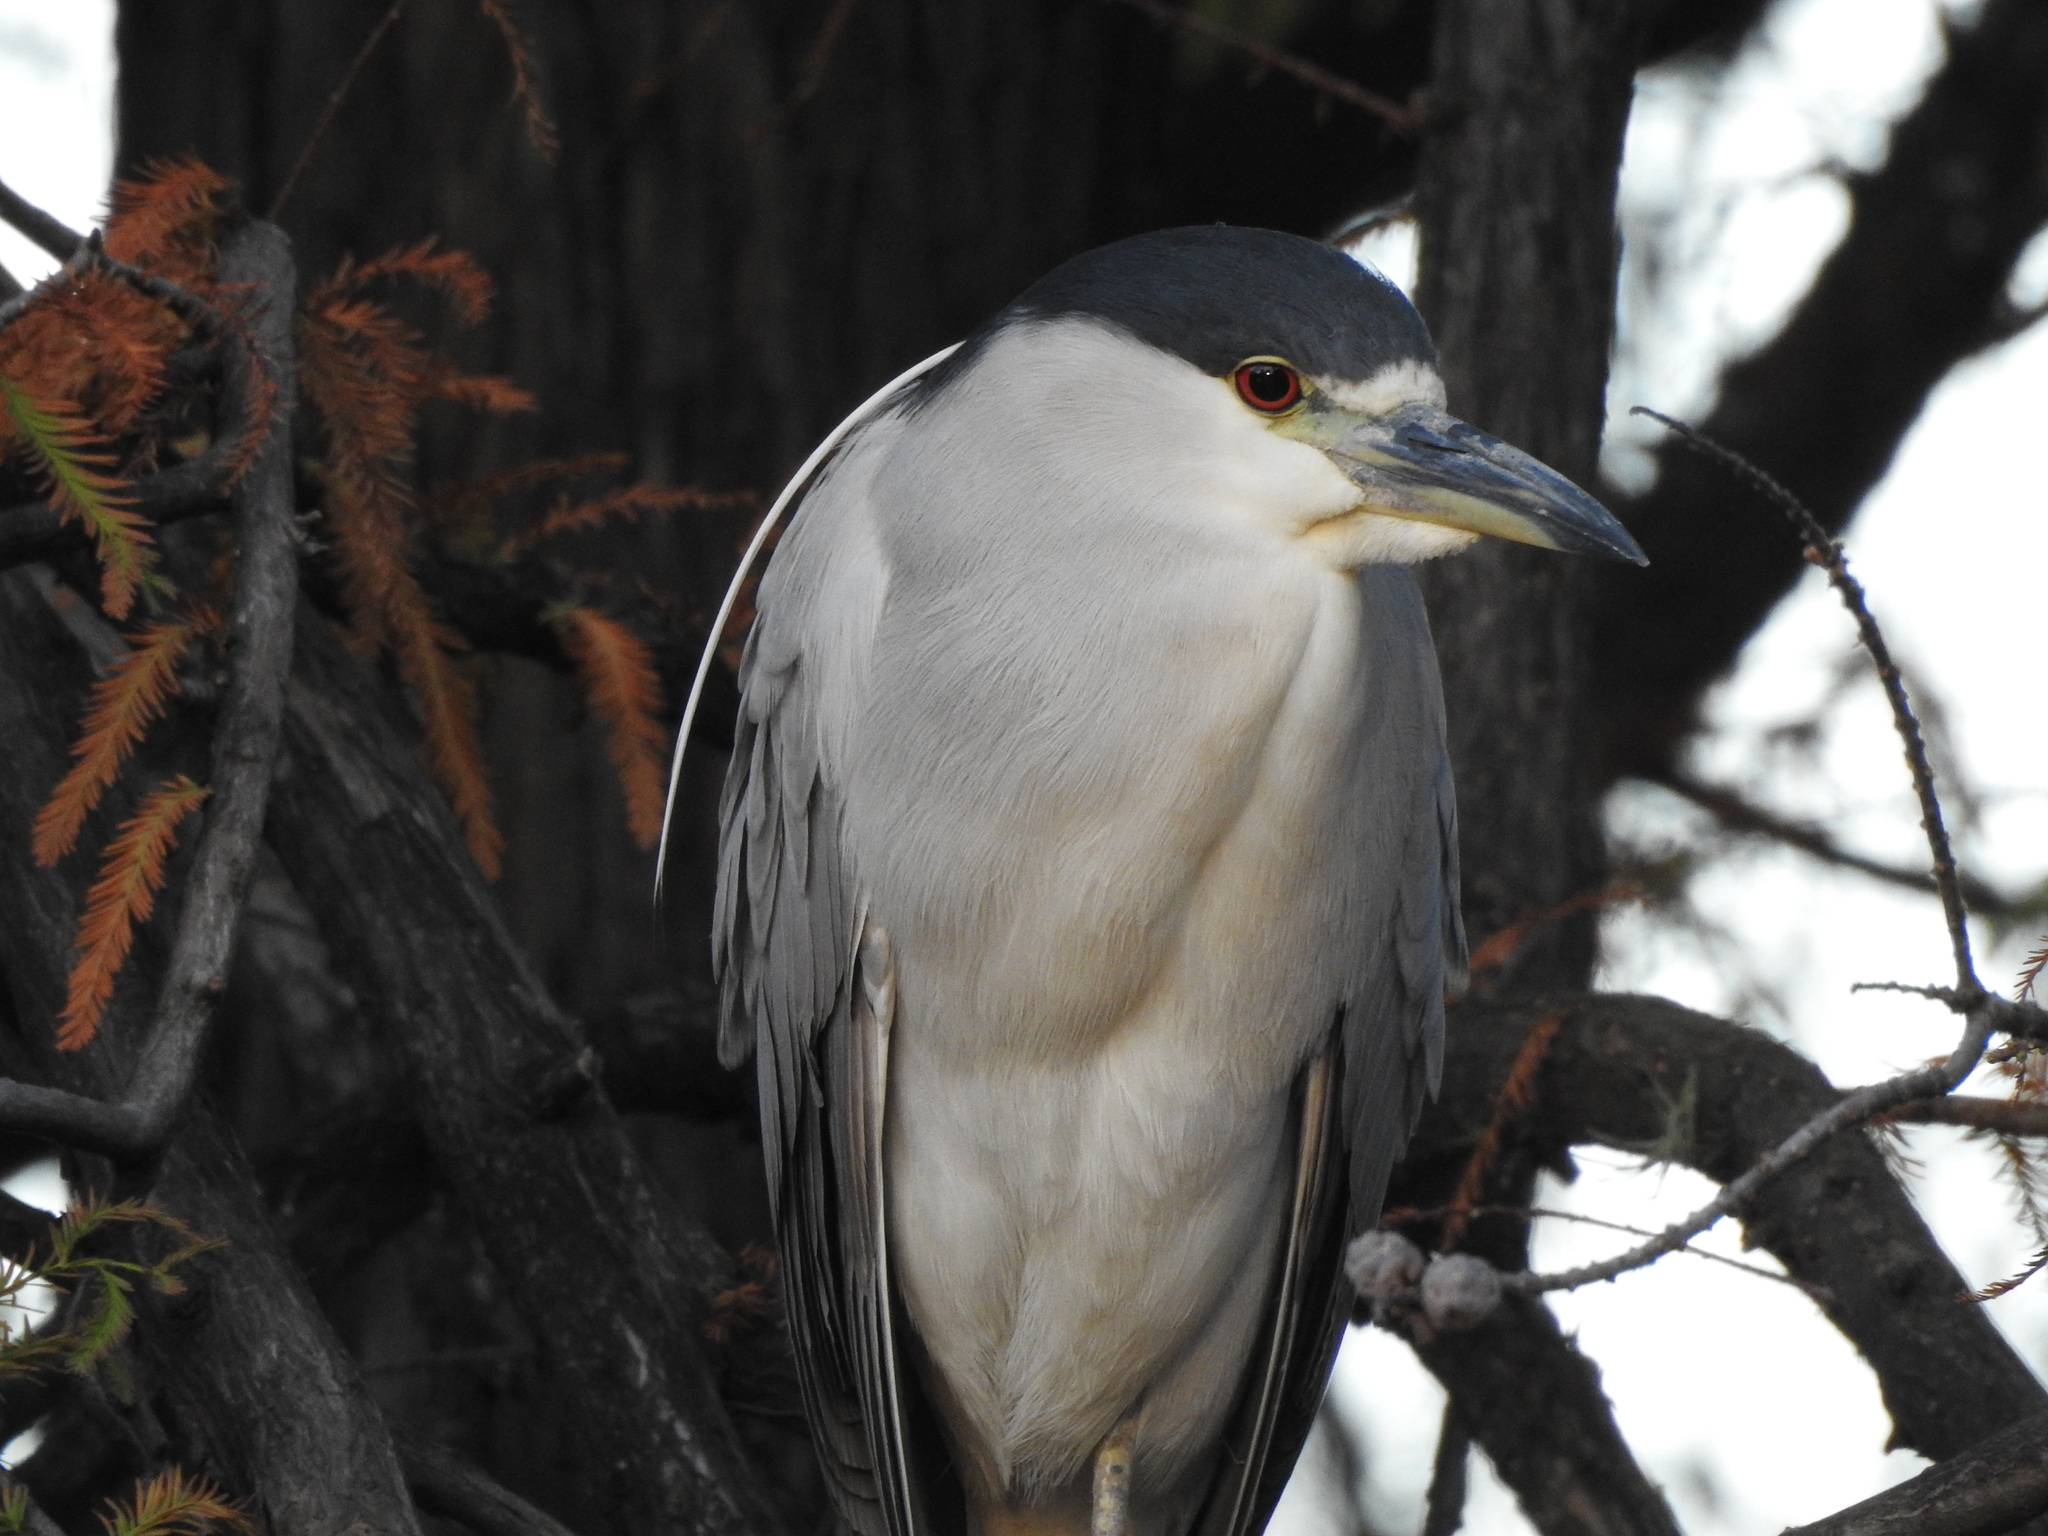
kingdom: Animalia
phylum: Chordata
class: Aves
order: Pelecaniformes
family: Ardeidae
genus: Nycticorax
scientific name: Nycticorax nycticorax
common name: Black-crowned night heron
